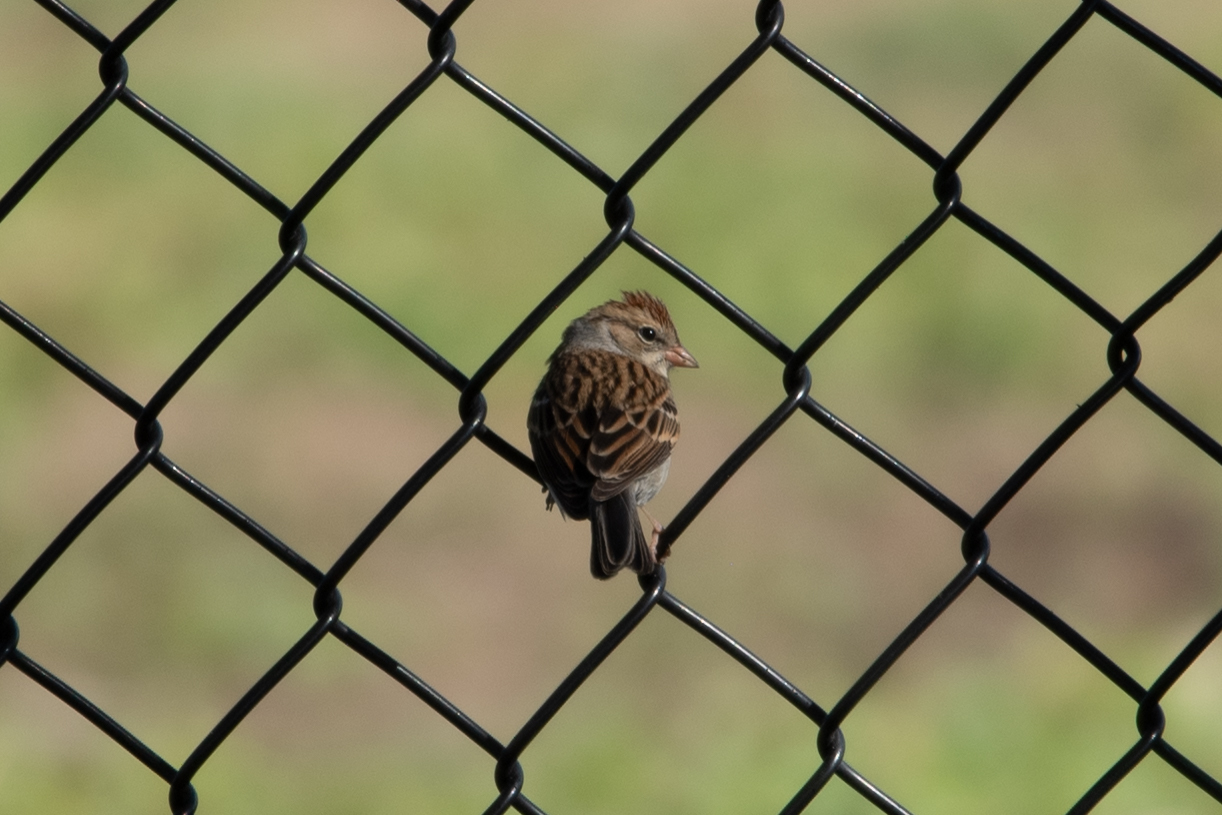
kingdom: Animalia
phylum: Chordata
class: Aves
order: Passeriformes
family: Passerellidae
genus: Spizella
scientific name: Spizella passerina
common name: Chipping sparrow
